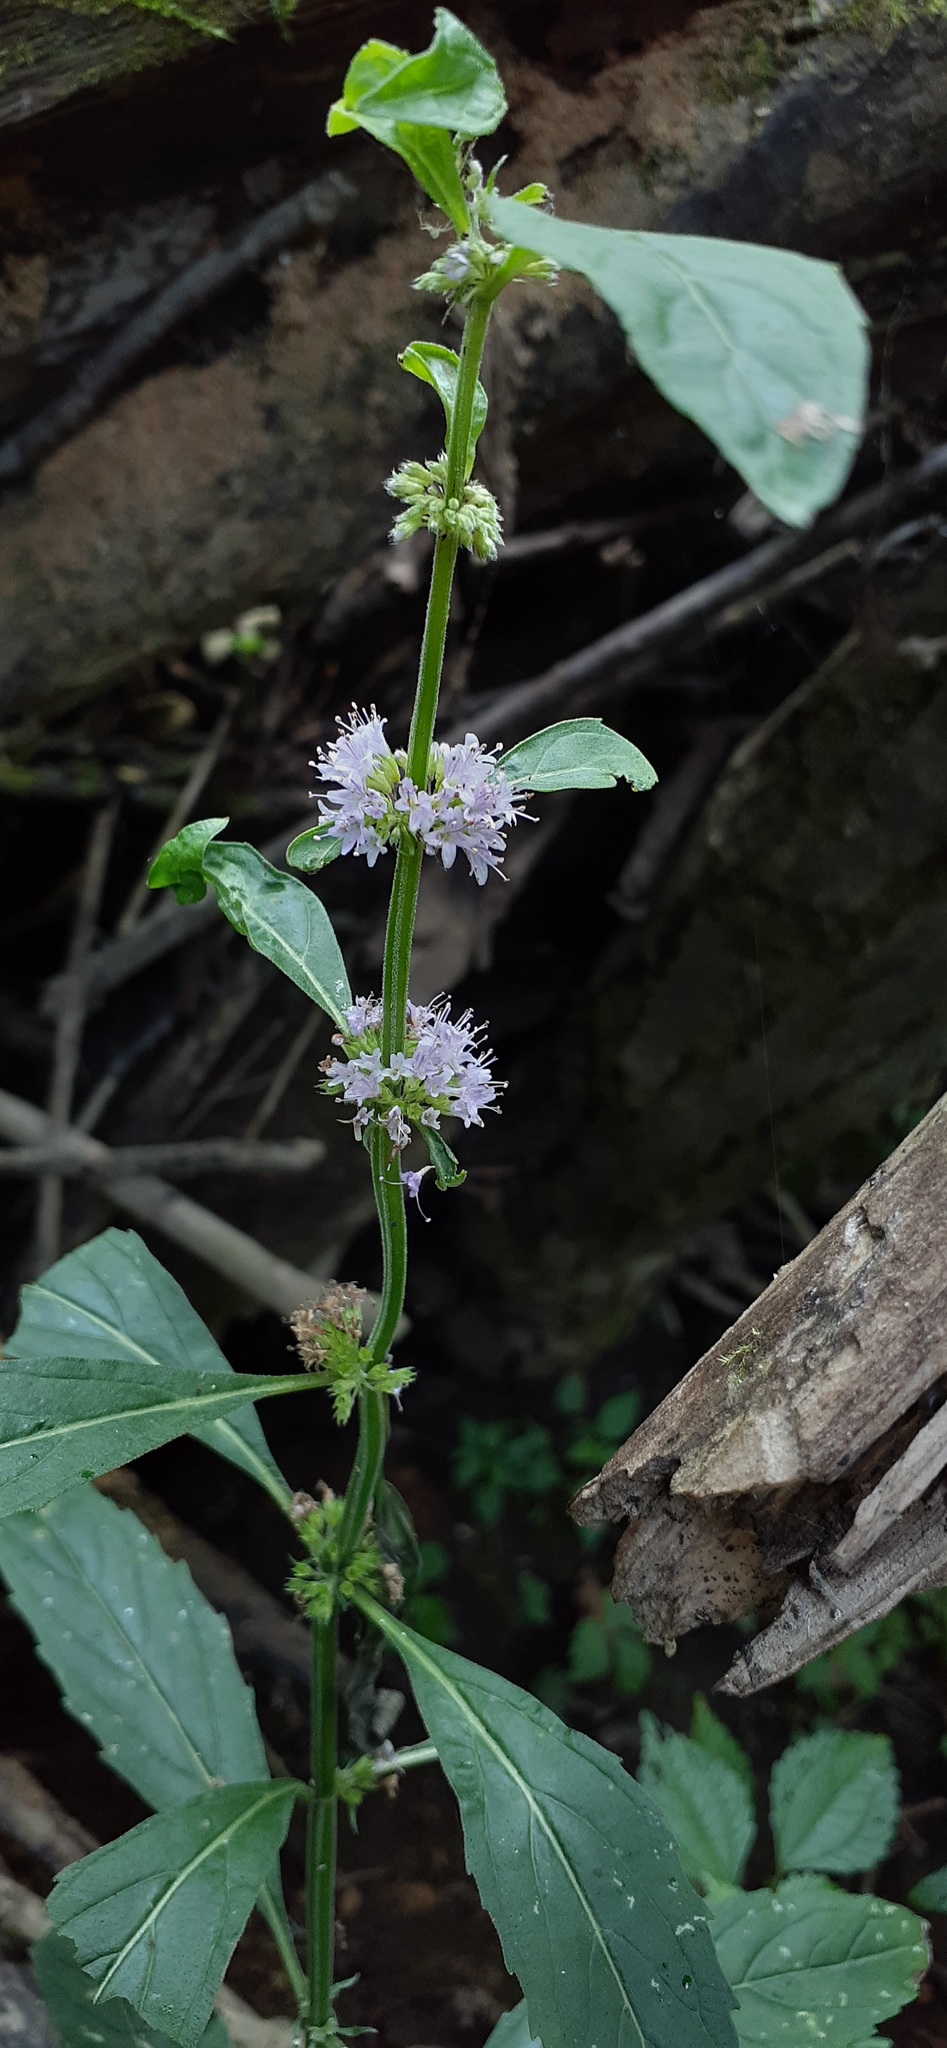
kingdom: Plantae
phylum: Tracheophyta
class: Magnoliopsida
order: Lamiales
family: Lamiaceae
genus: Mentha
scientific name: Mentha canadensis
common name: American corn mint
